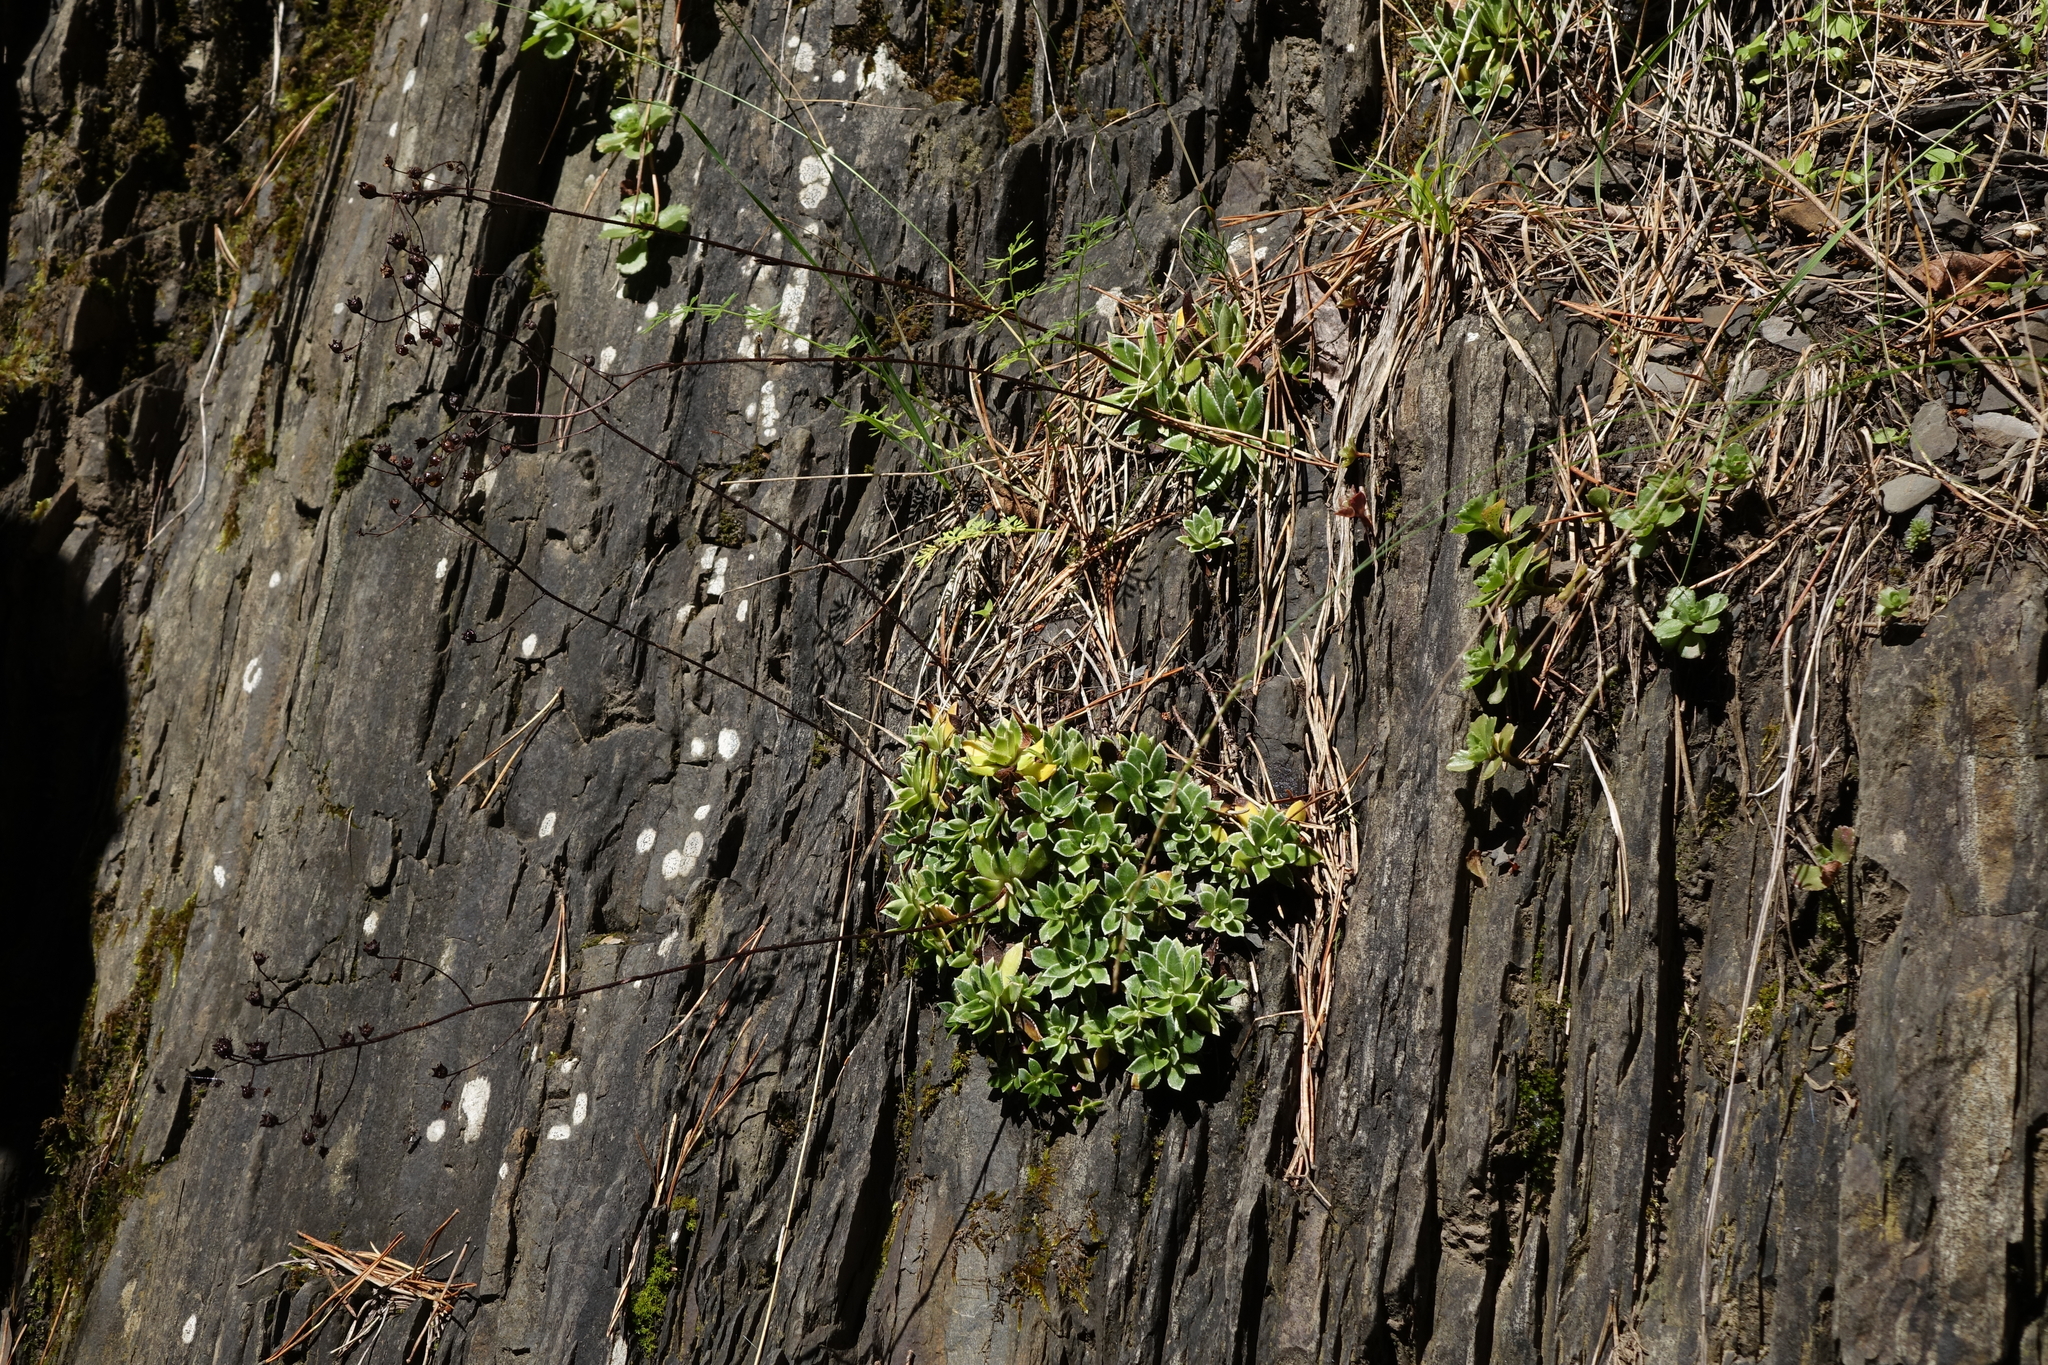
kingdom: Plantae
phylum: Tracheophyta
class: Magnoliopsida
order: Saxifragales
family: Saxifragaceae
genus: Saxifraga
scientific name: Saxifraga paniculata
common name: Livelong saxifrage
